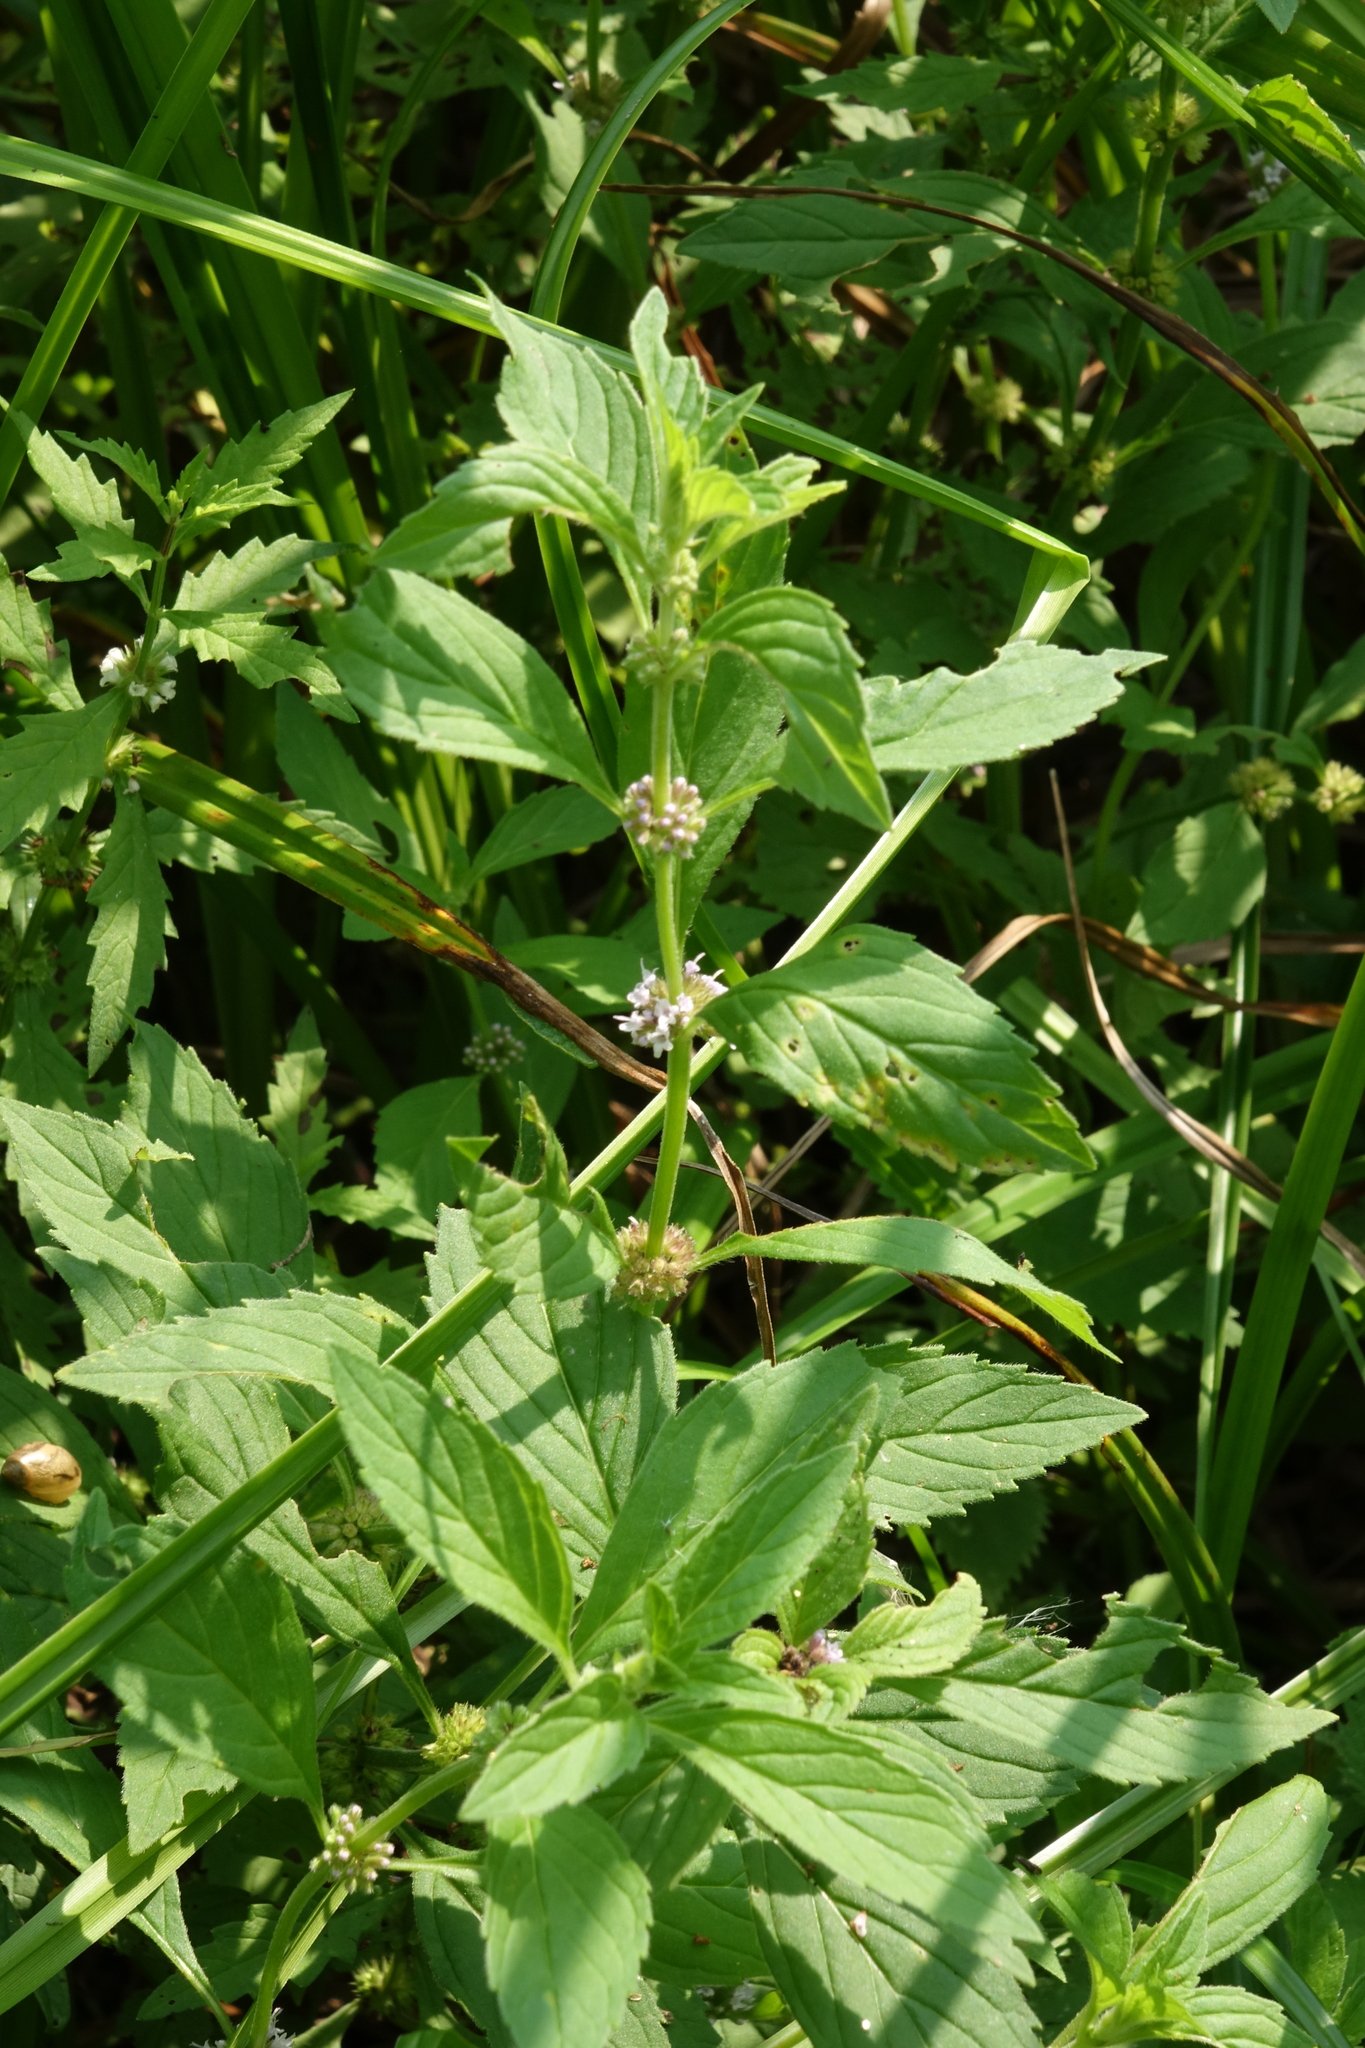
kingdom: Plantae
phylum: Tracheophyta
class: Magnoliopsida
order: Lamiales
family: Lamiaceae
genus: Mentha
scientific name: Mentha arvensis
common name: Corn mint
